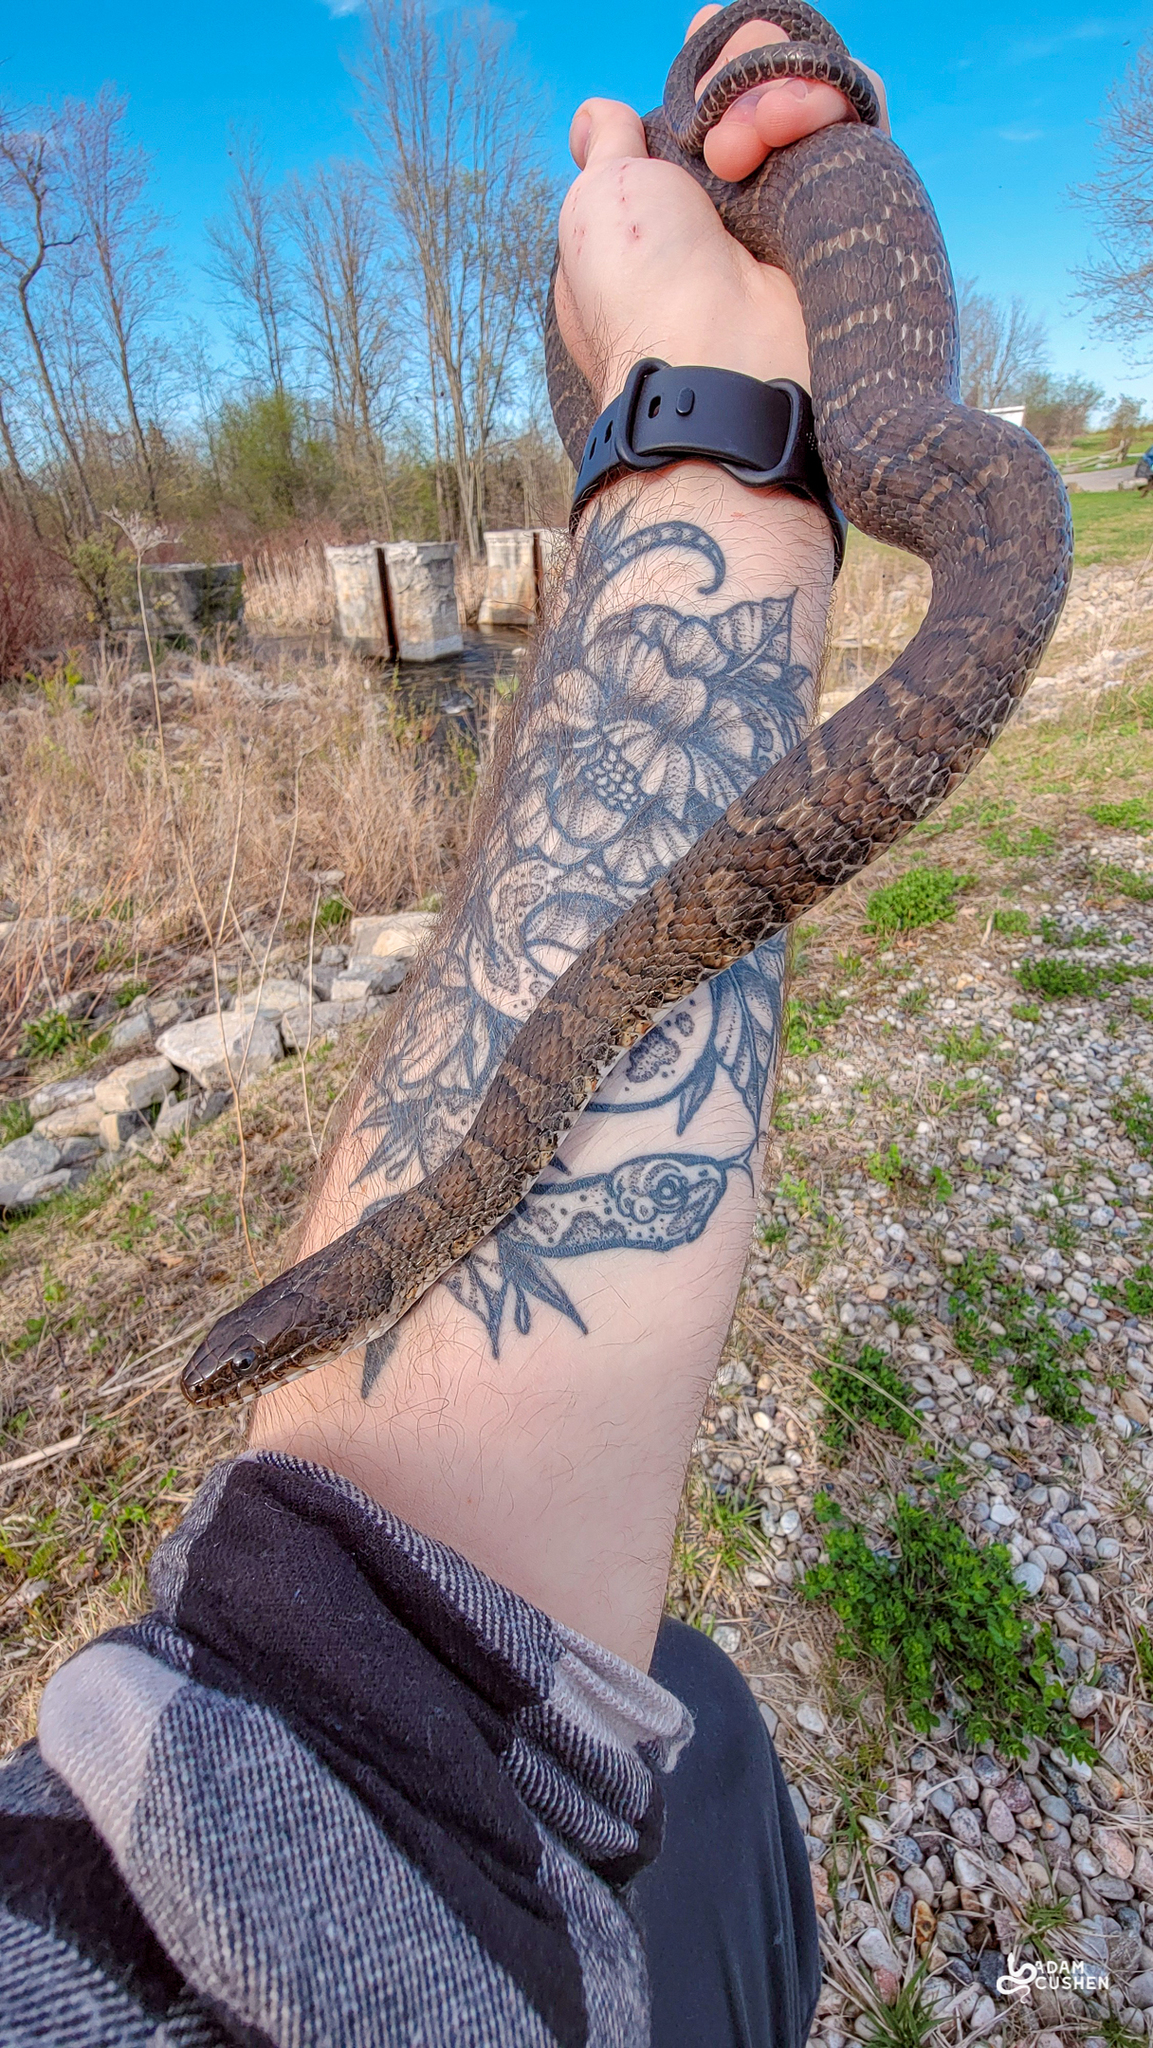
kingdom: Animalia
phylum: Chordata
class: Squamata
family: Colubridae
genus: Nerodia
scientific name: Nerodia sipedon
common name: Northern water snake
